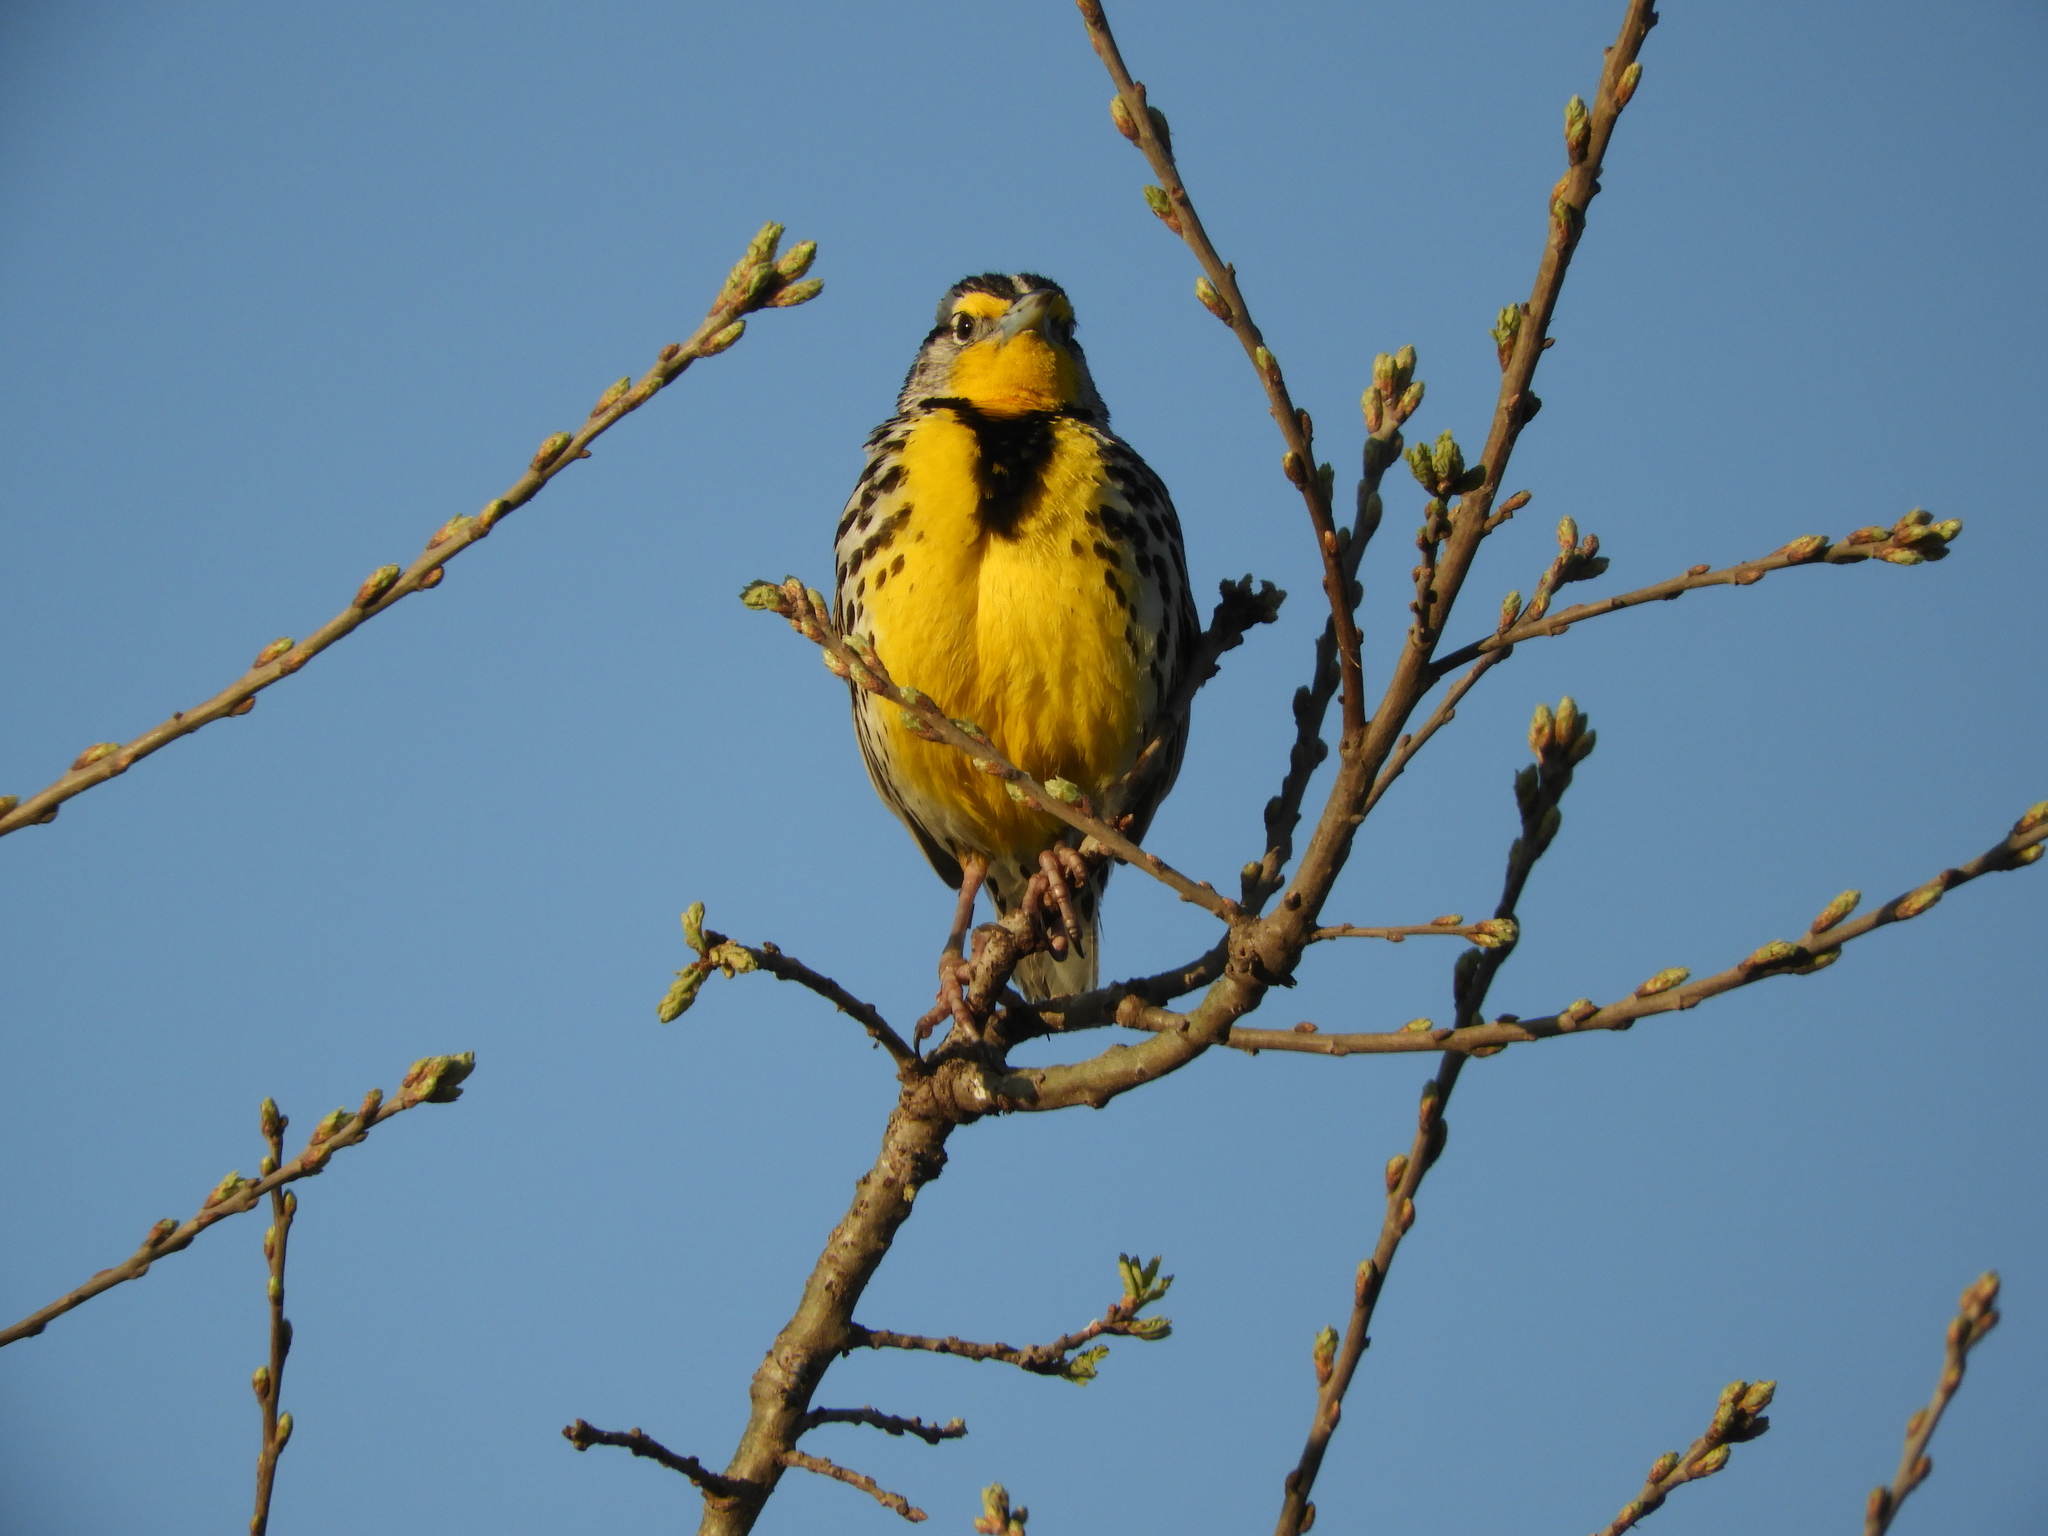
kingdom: Animalia
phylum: Chordata
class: Aves
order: Passeriformes
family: Icteridae
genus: Sturnella
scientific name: Sturnella neglecta
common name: Western meadowlark
